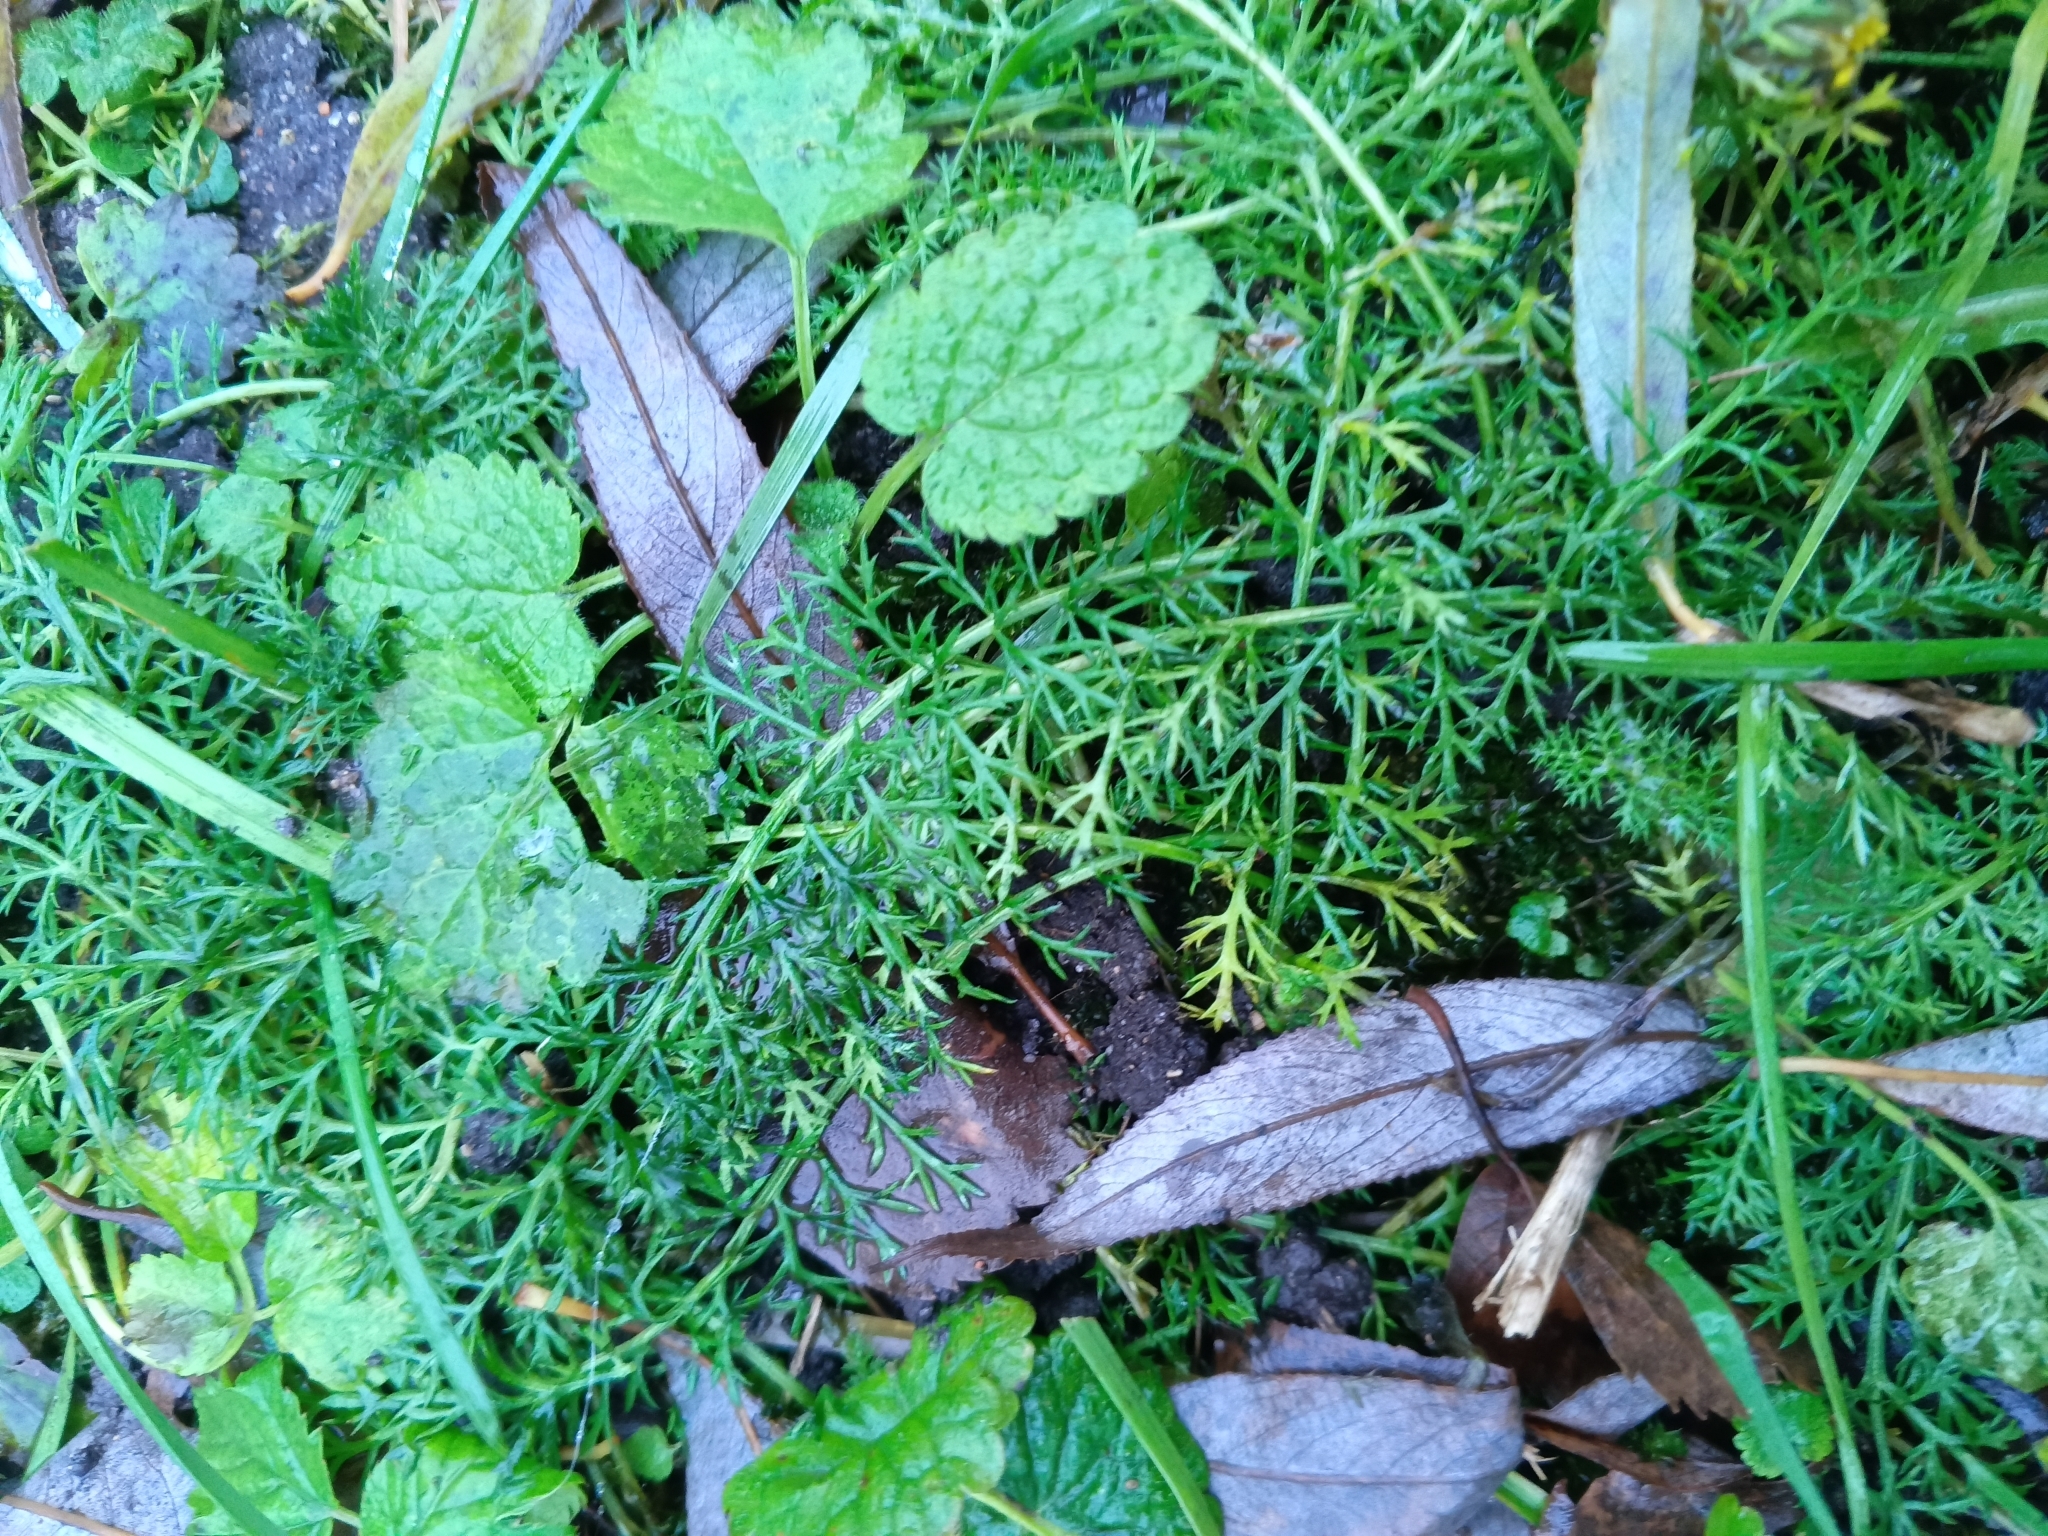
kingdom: Plantae
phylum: Tracheophyta
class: Magnoliopsida
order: Asterales
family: Asteraceae
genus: Achillea
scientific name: Achillea millefolium
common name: Yarrow
